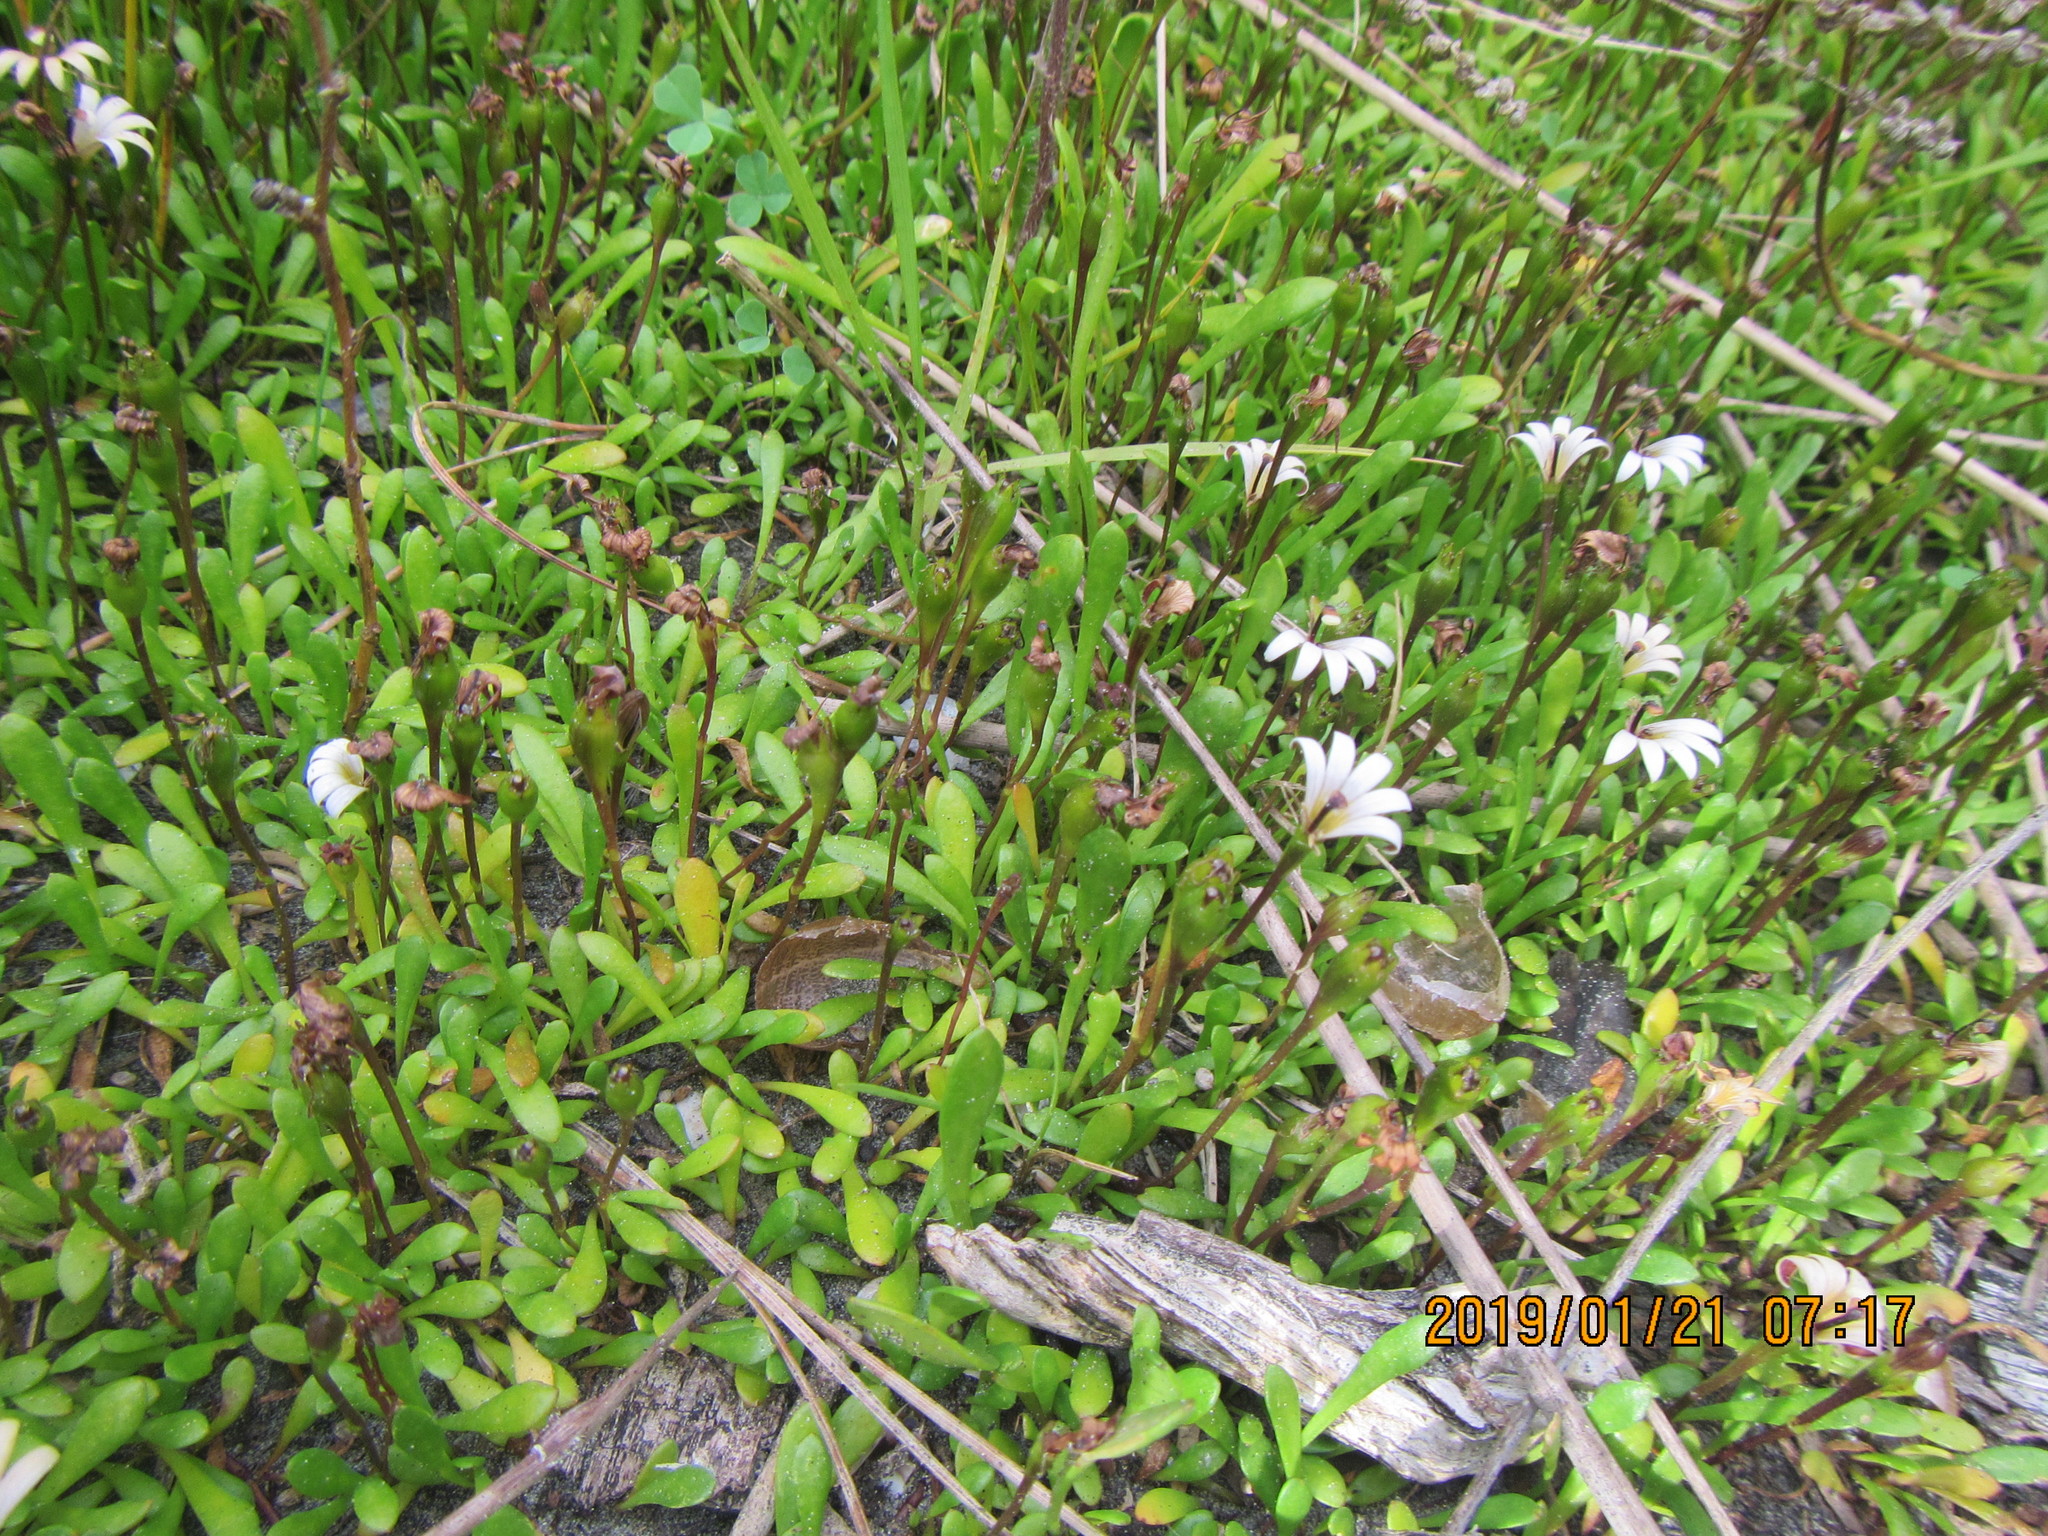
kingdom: Plantae
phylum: Tracheophyta
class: Magnoliopsida
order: Asterales
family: Goodeniaceae
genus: Goodenia
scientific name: Goodenia radicans
